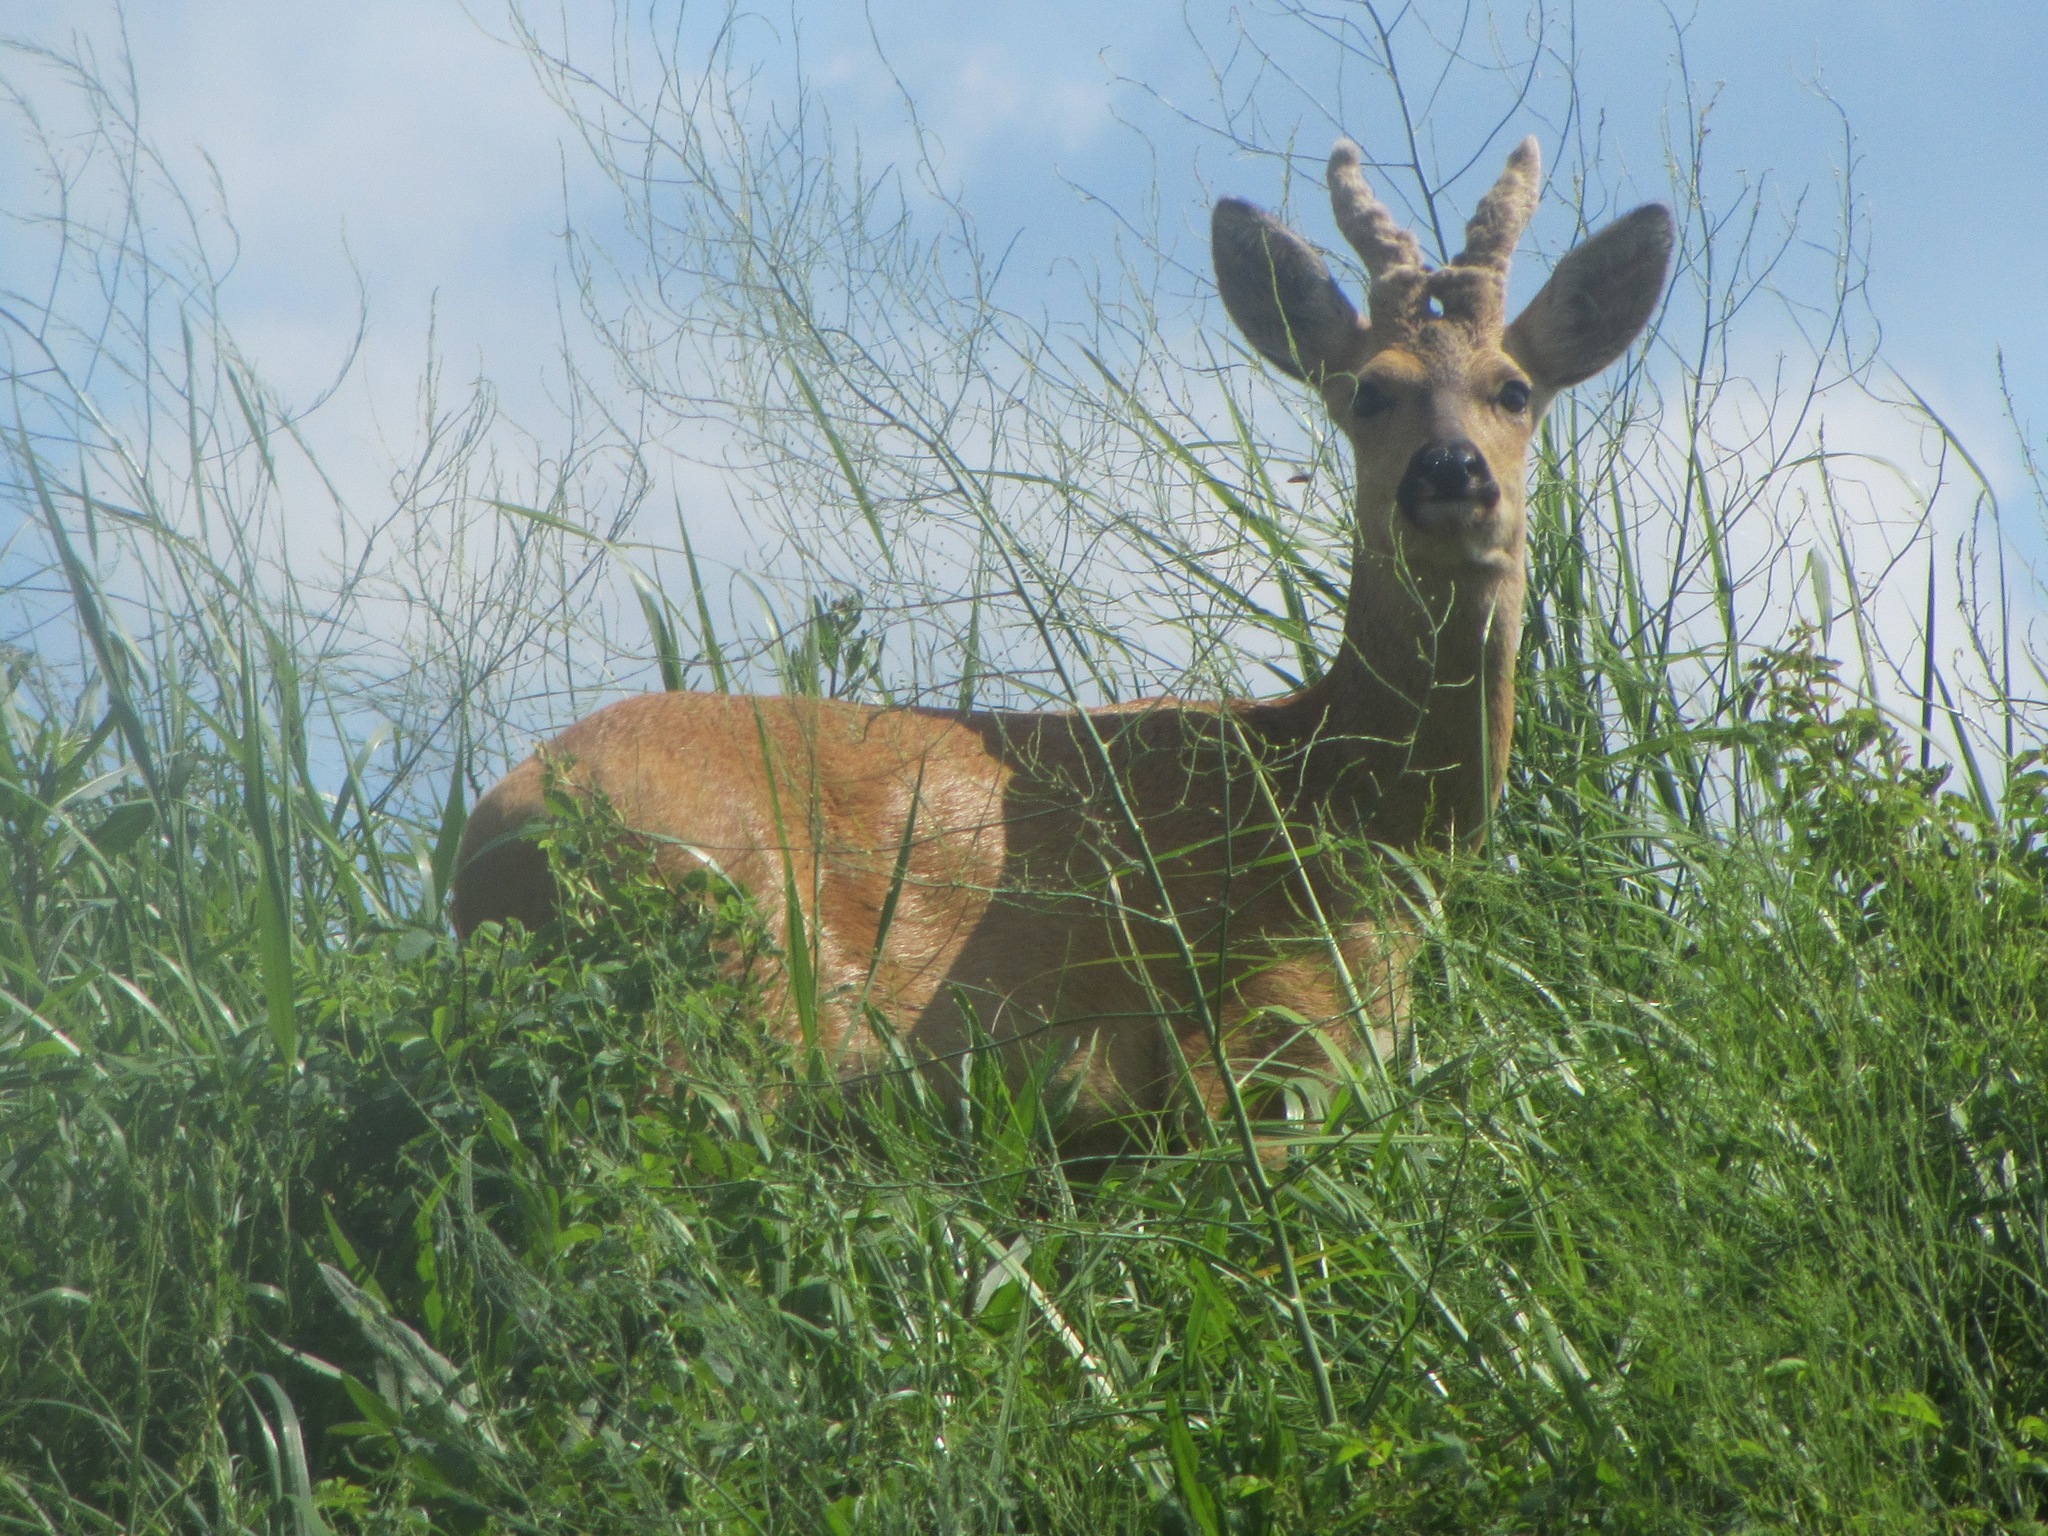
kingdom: Animalia
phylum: Chordata
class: Mammalia
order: Artiodactyla
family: Cervidae
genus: Capreolus
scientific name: Capreolus pygargus
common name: Siberian roe
